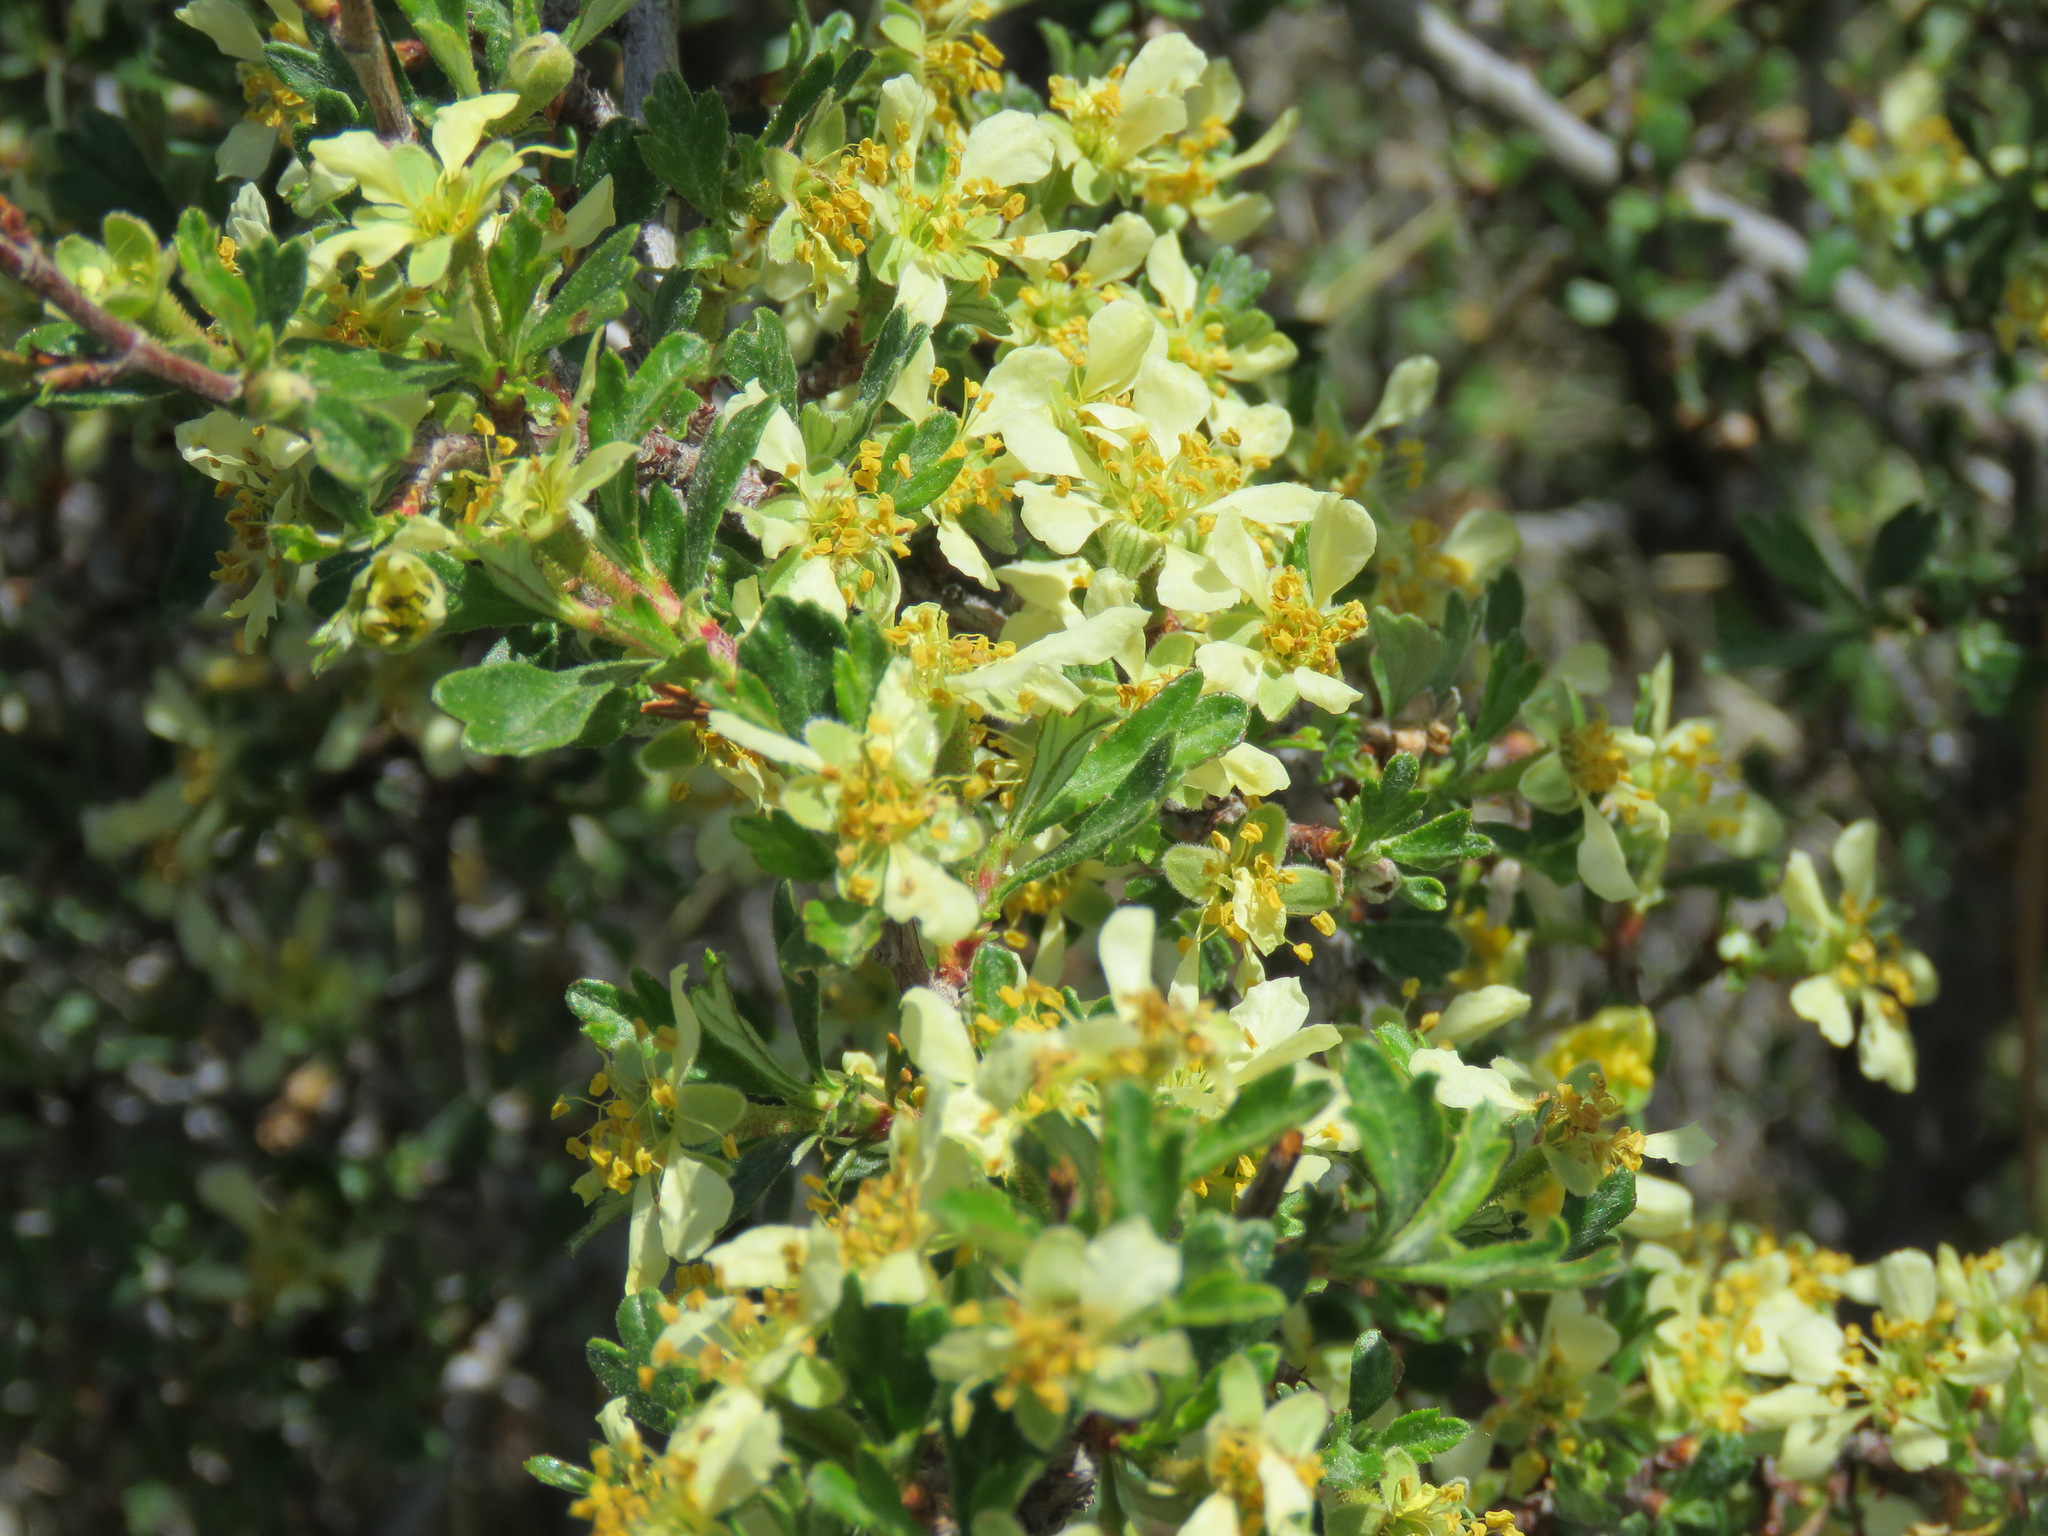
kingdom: Plantae
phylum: Tracheophyta
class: Magnoliopsida
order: Rosales
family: Rosaceae
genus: Purshia
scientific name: Purshia tridentata
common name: Antelope bitterbrush
